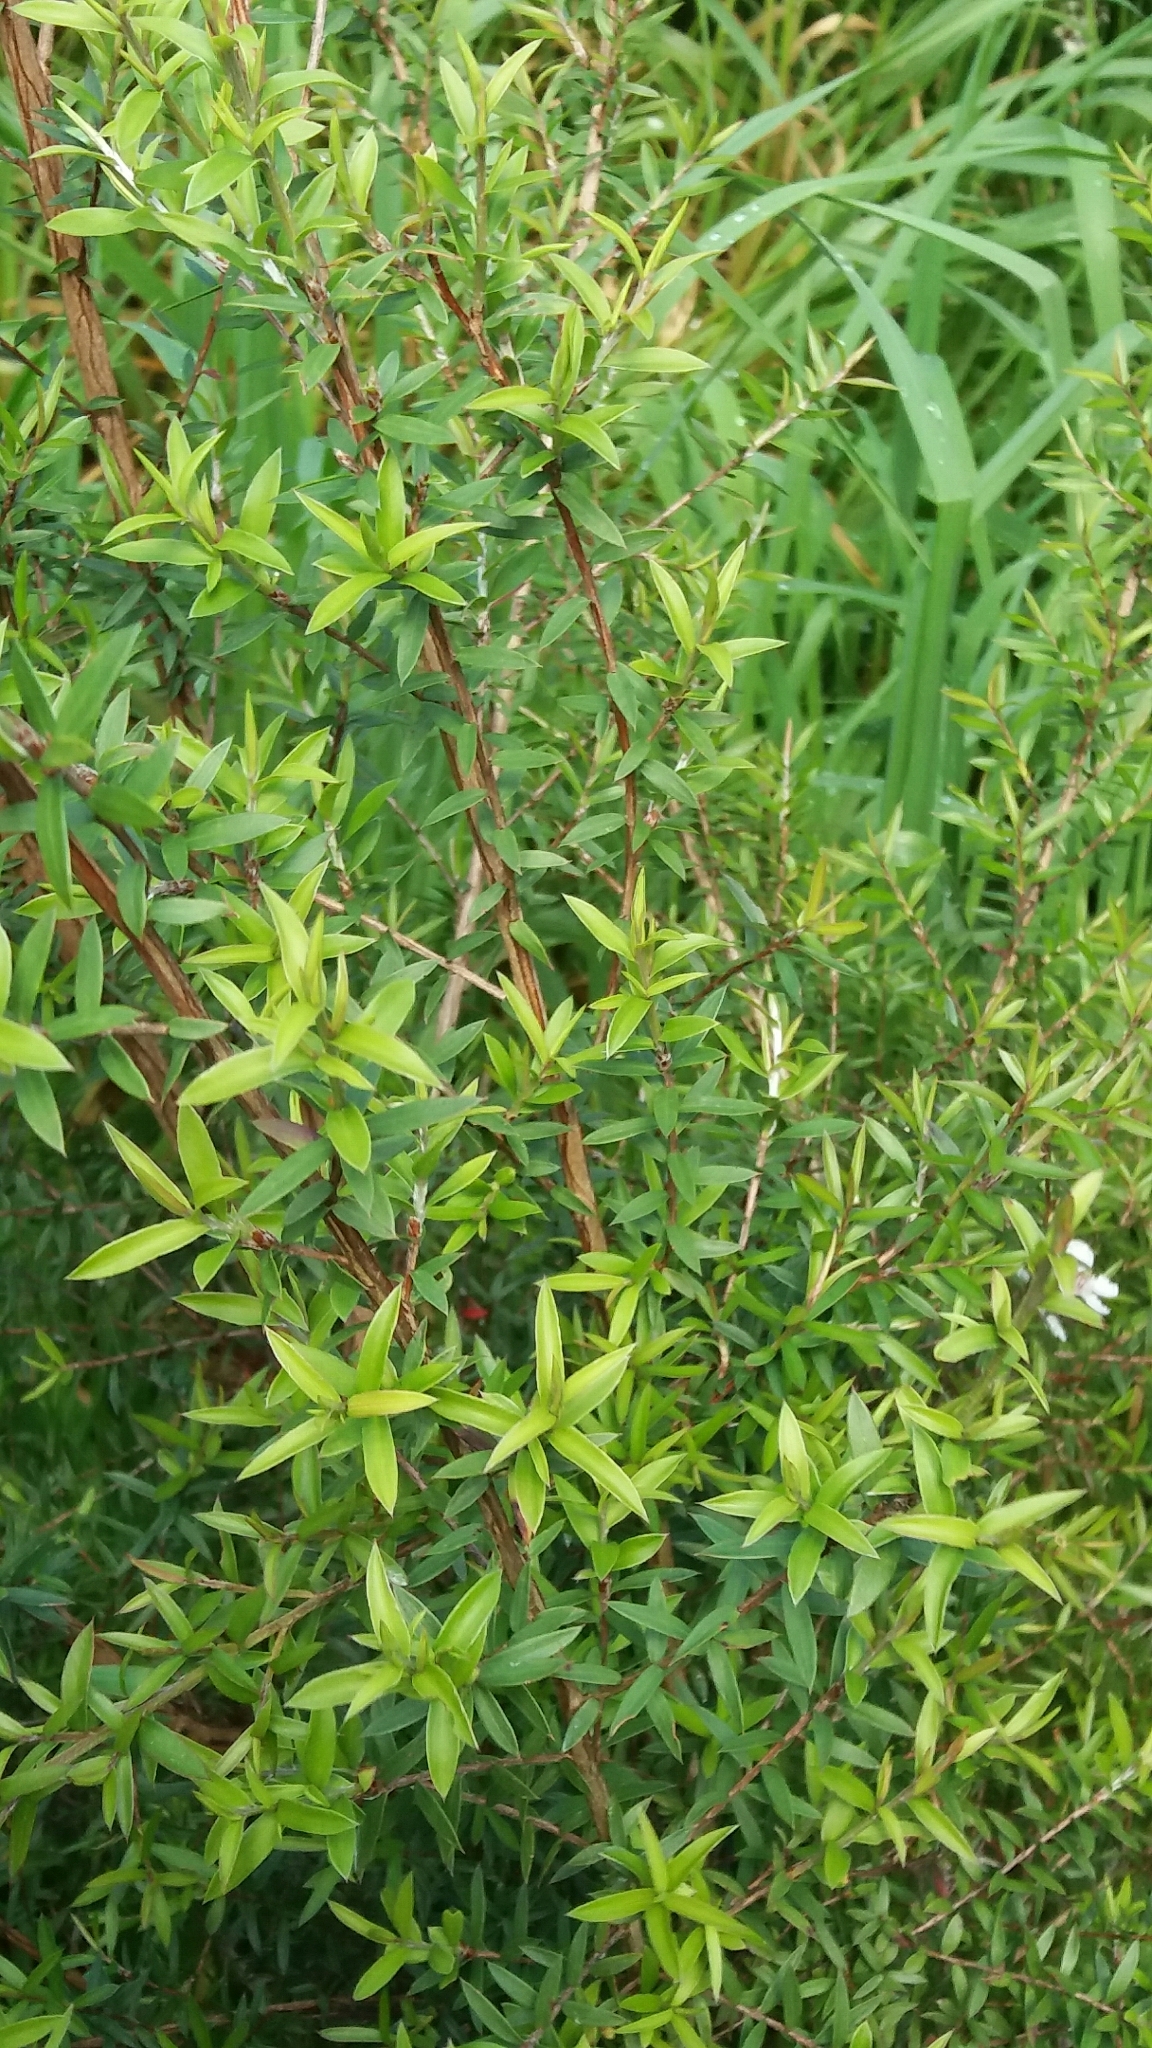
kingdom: Plantae
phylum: Tracheophyta
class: Magnoliopsida
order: Myrtales
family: Myrtaceae
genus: Leptospermum
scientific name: Leptospermum scoparium
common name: Broom tea-tree
